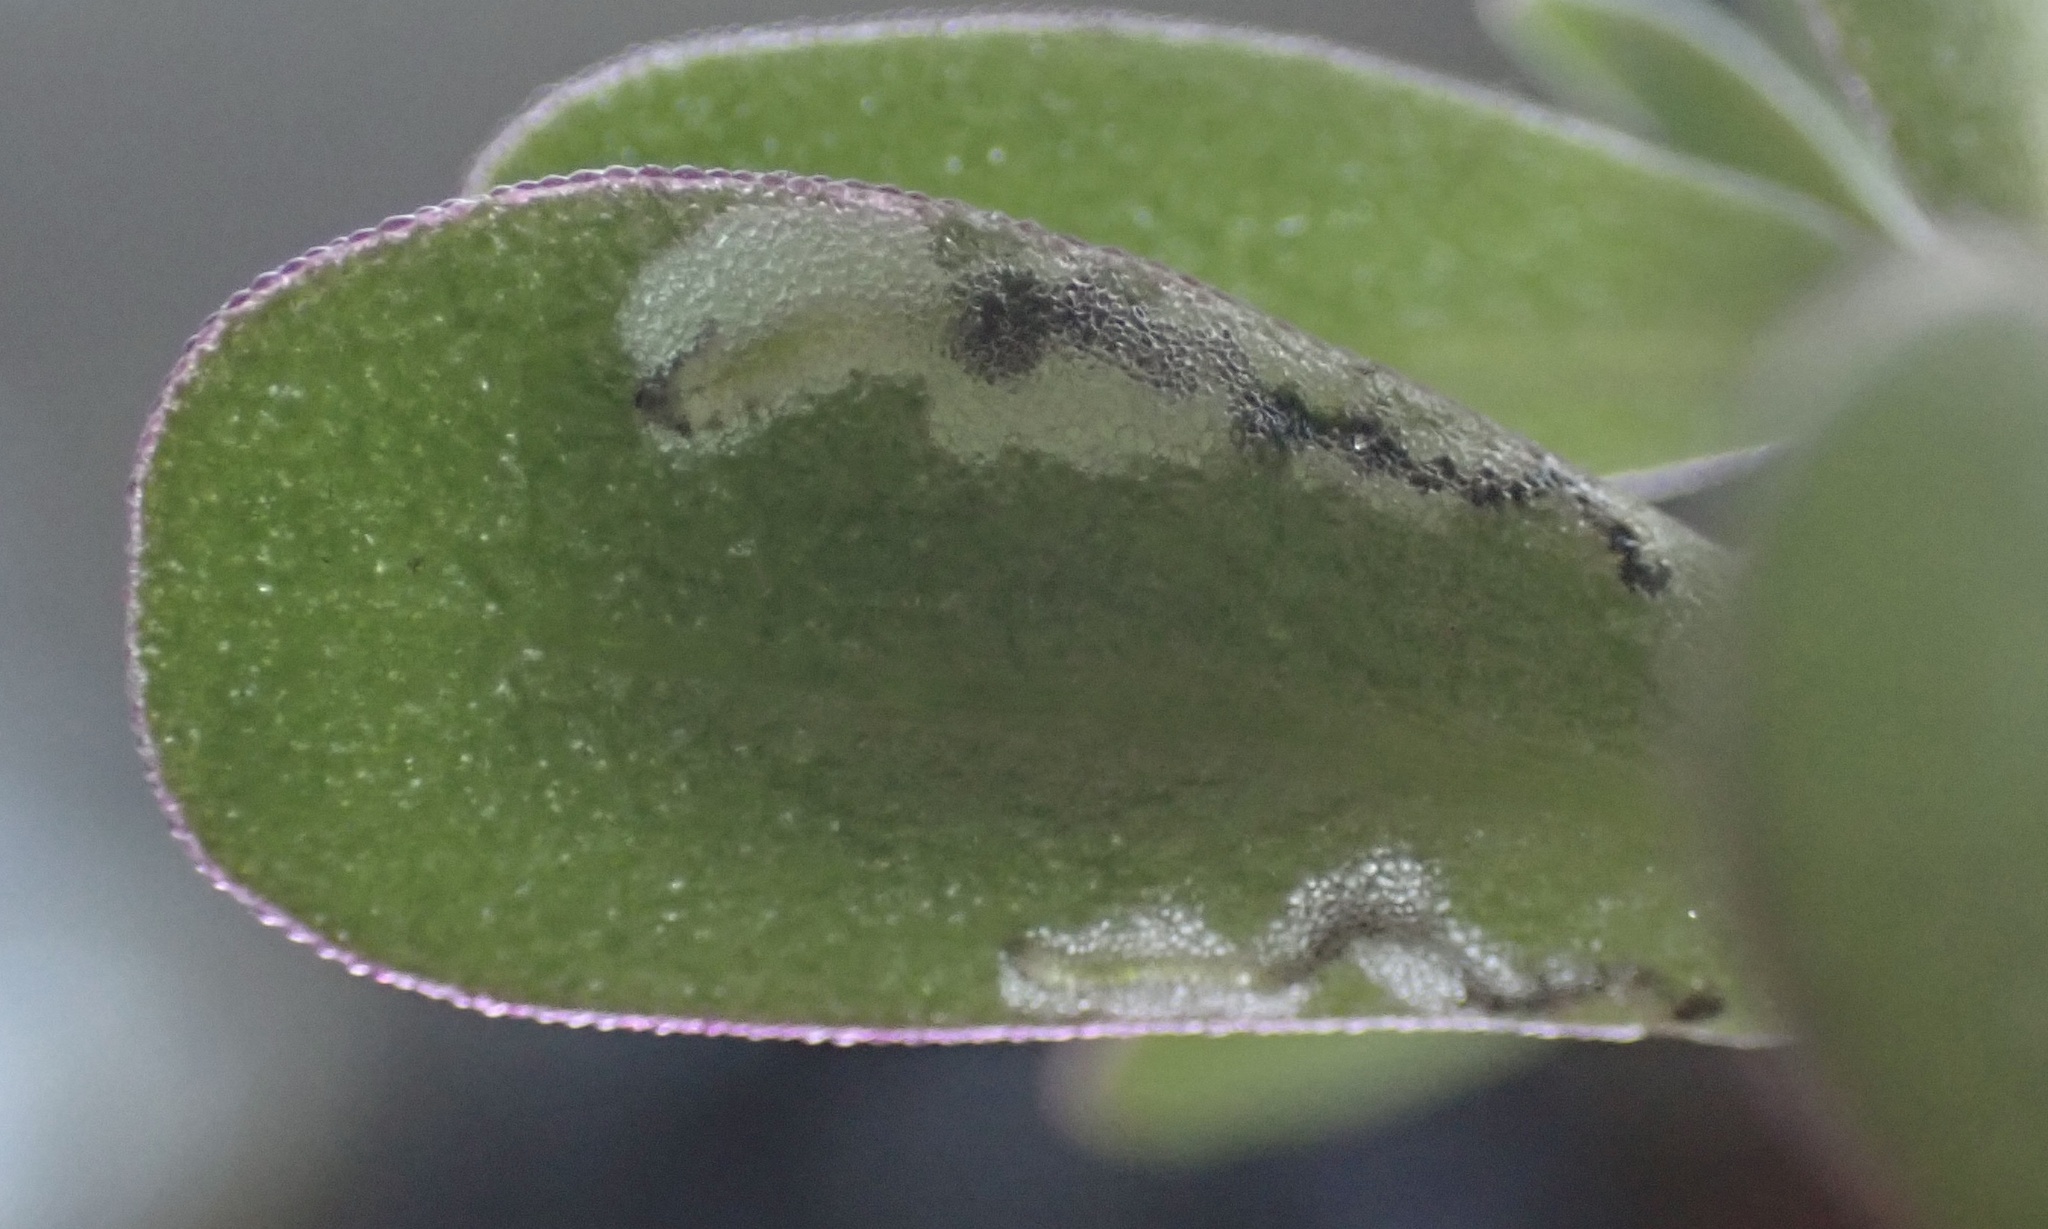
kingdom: Animalia
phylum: Arthropoda
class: Insecta
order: Hymenoptera
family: Argidae
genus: Schizocerella
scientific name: Schizocerella pilicornis
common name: Purslane sawfly
